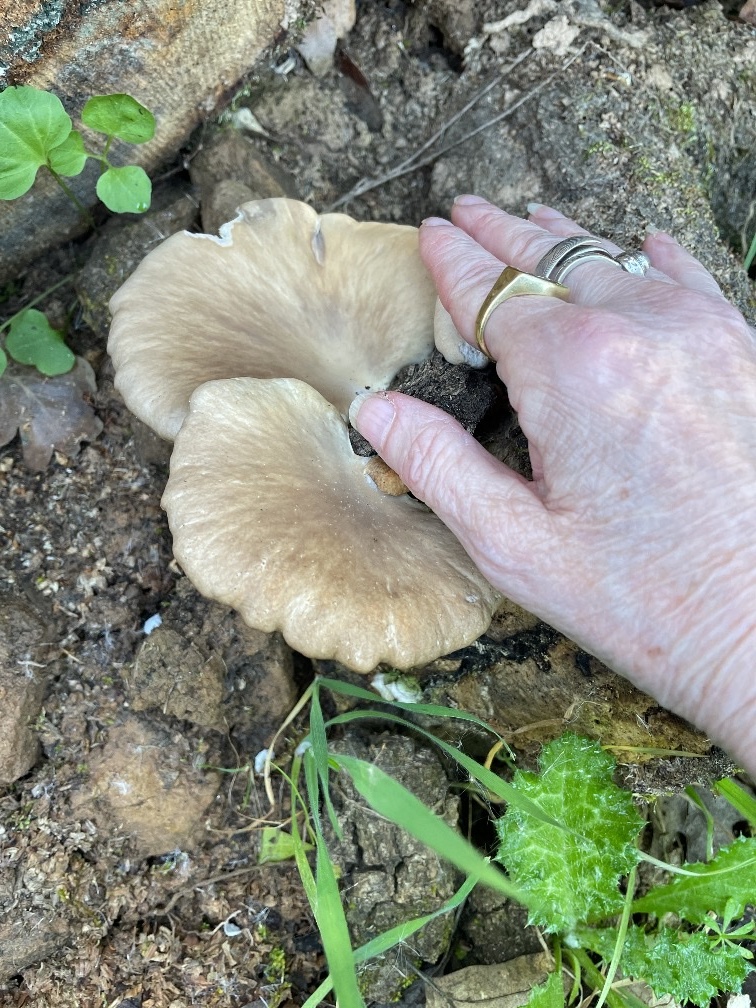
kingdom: Fungi
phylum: Basidiomycota
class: Agaricomycetes
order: Agaricales
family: Pleurotaceae
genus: Pleurotus
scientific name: Pleurotus ostreatus
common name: Oyster mushroom
